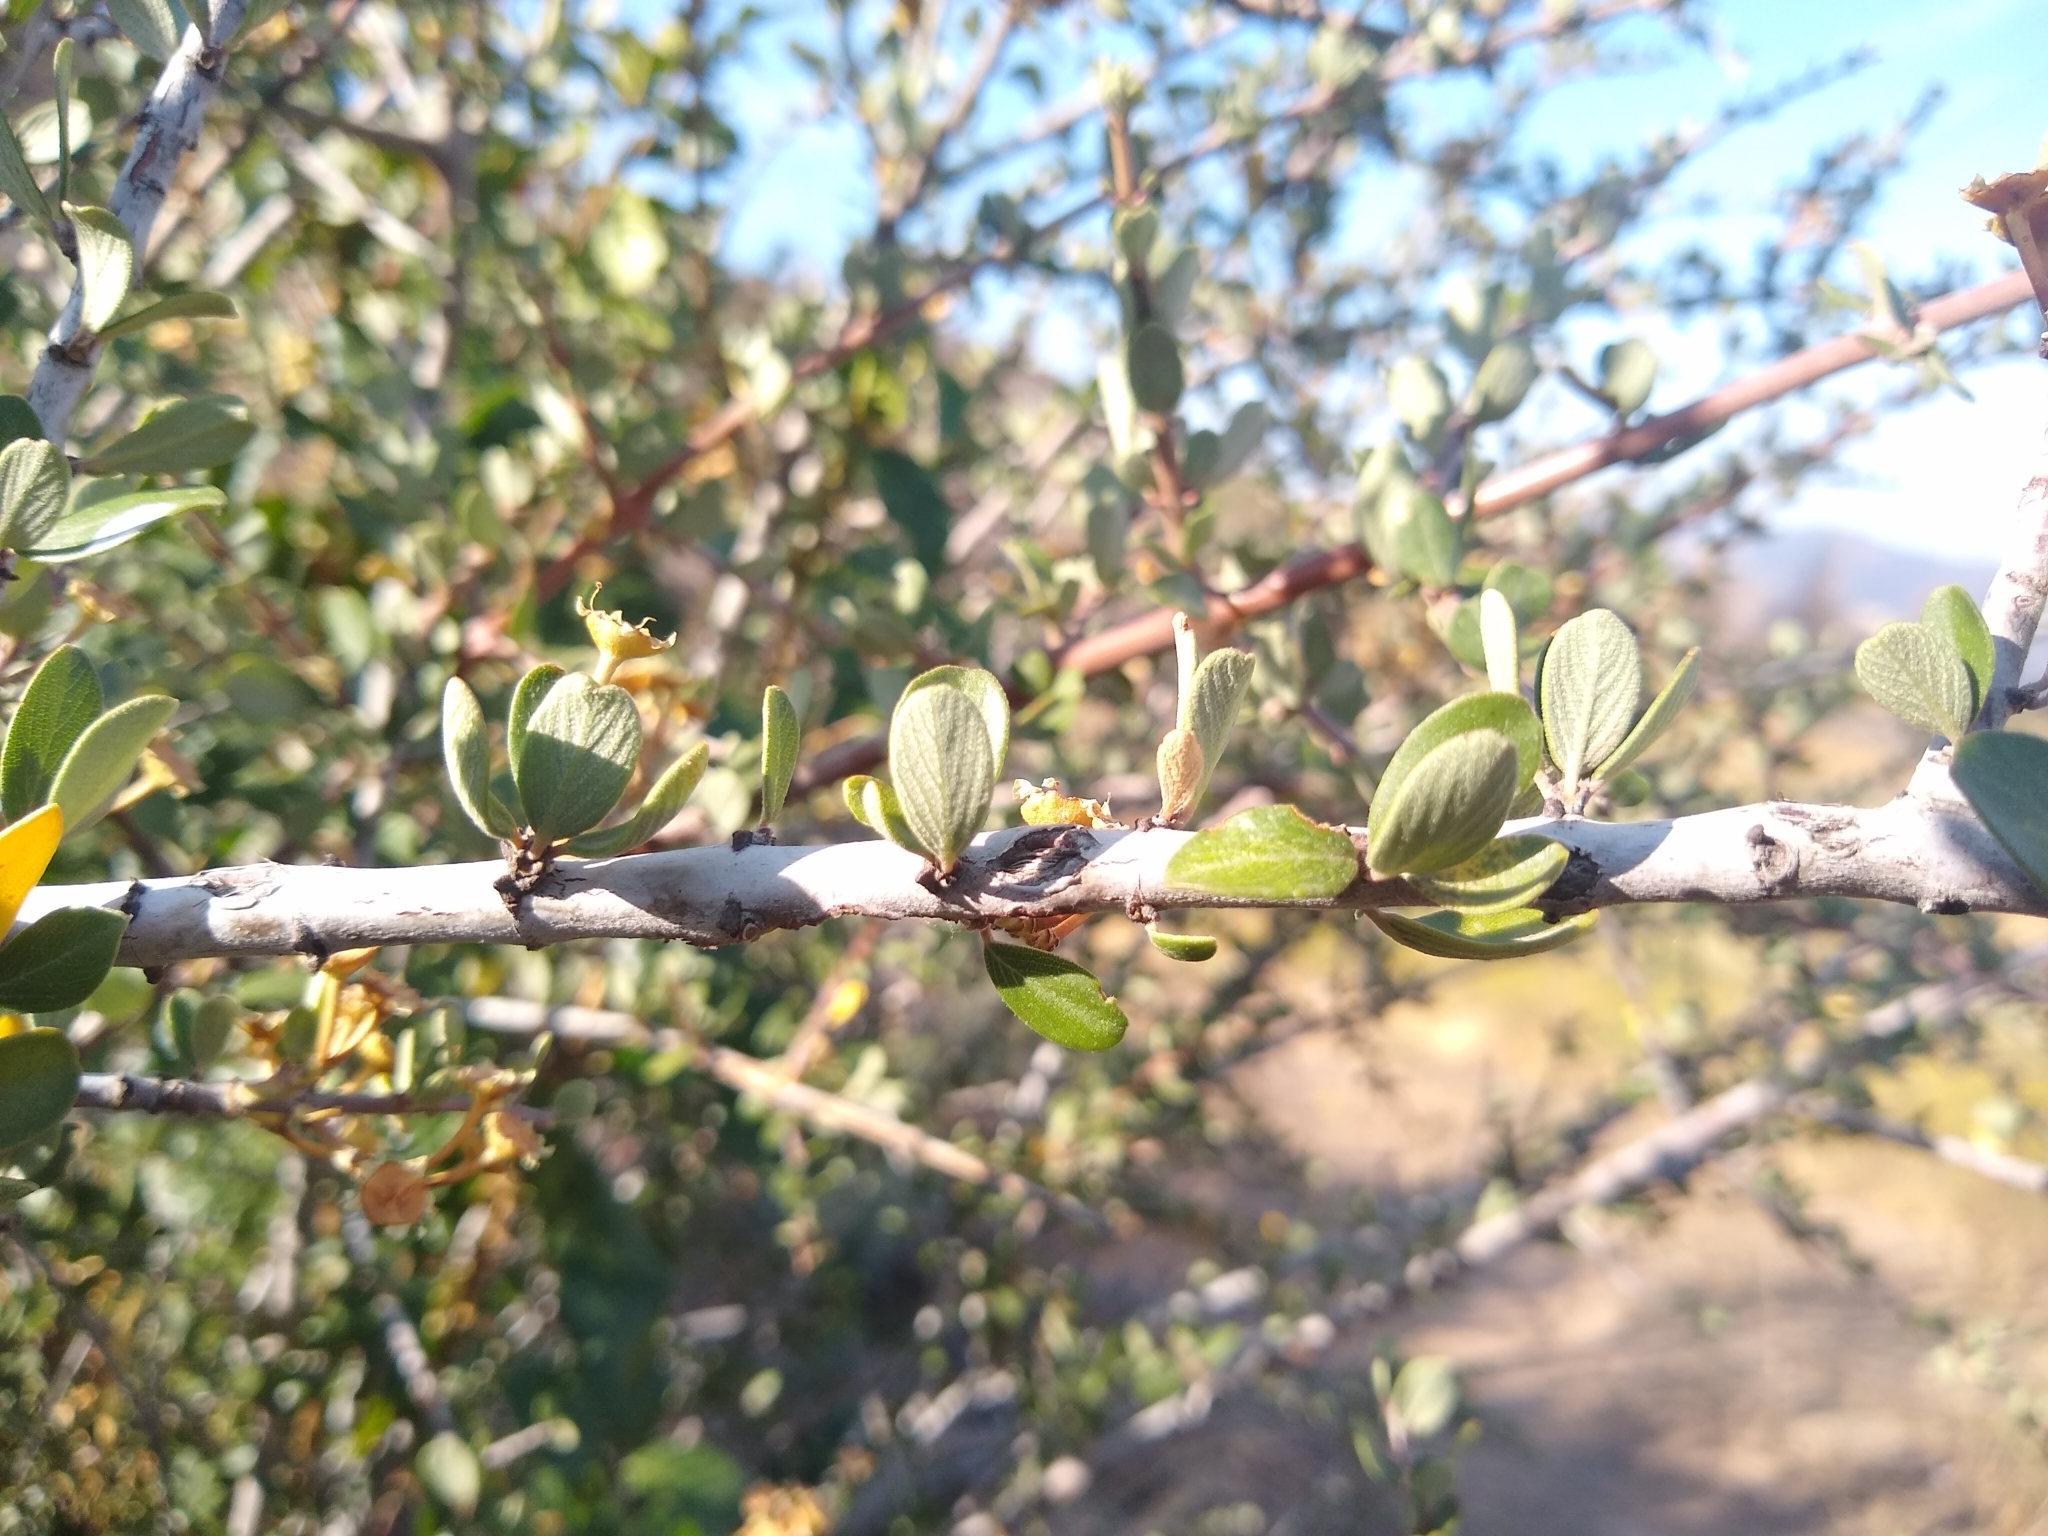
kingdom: Plantae
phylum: Tracheophyta
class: Magnoliopsida
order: Rosales
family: Rhamnaceae
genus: Ceanothus
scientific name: Ceanothus cuneatus
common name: Cuneate ceanothus
